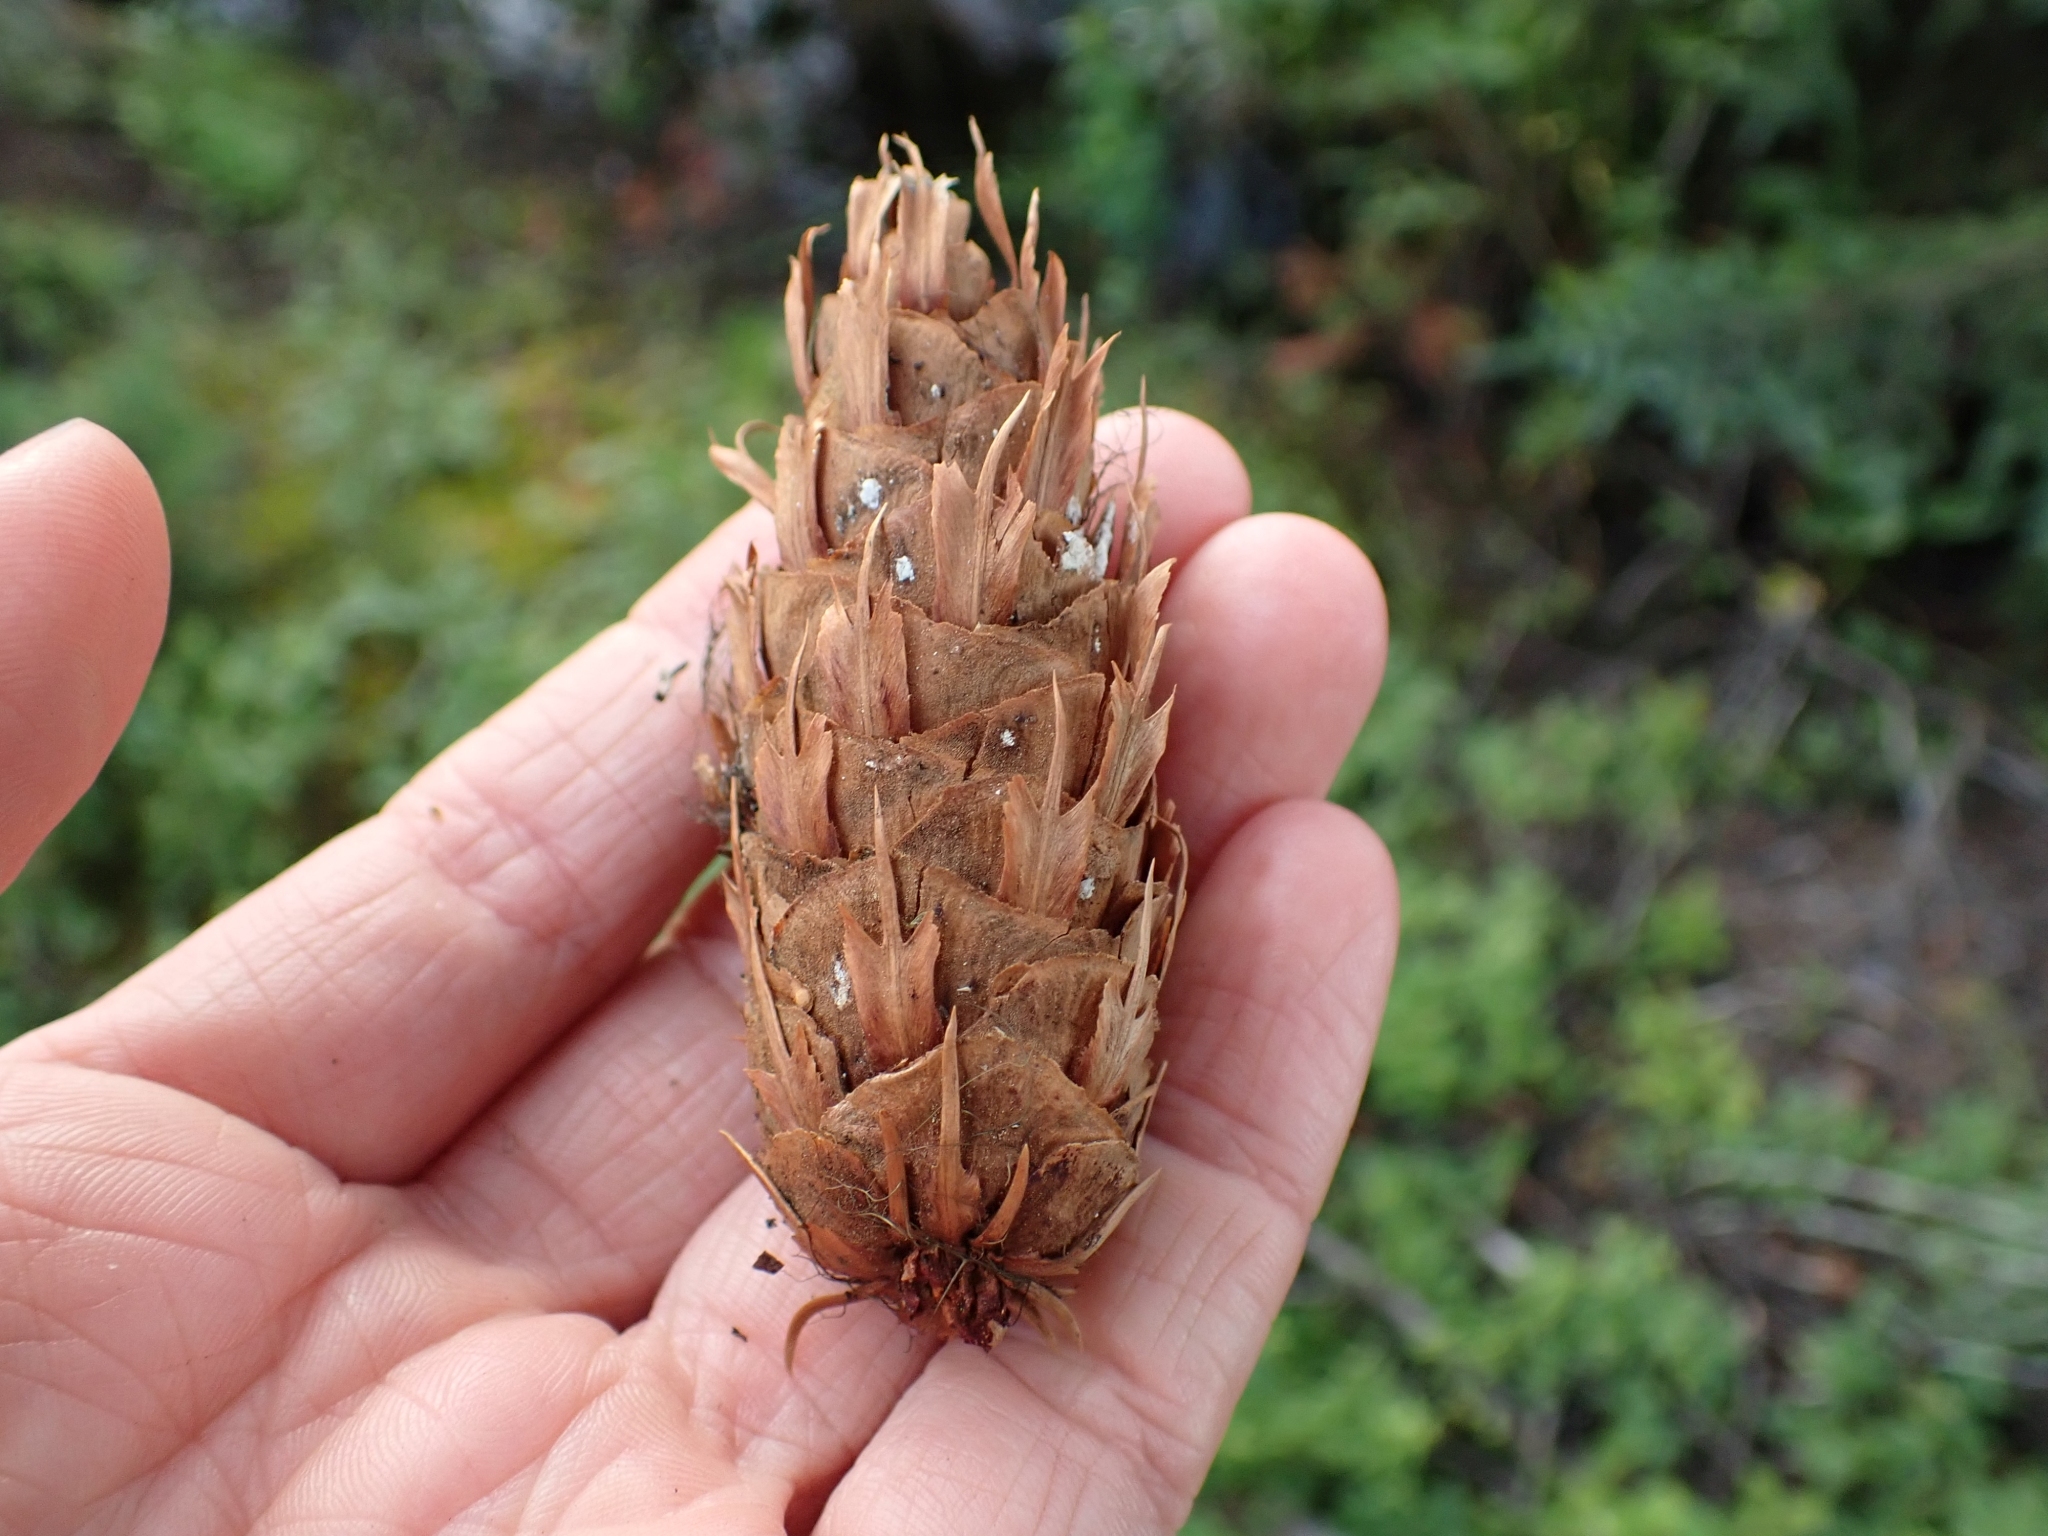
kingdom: Plantae
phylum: Tracheophyta
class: Pinopsida
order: Pinales
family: Pinaceae
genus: Pseudotsuga
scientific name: Pseudotsuga menziesii
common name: Douglas fir
